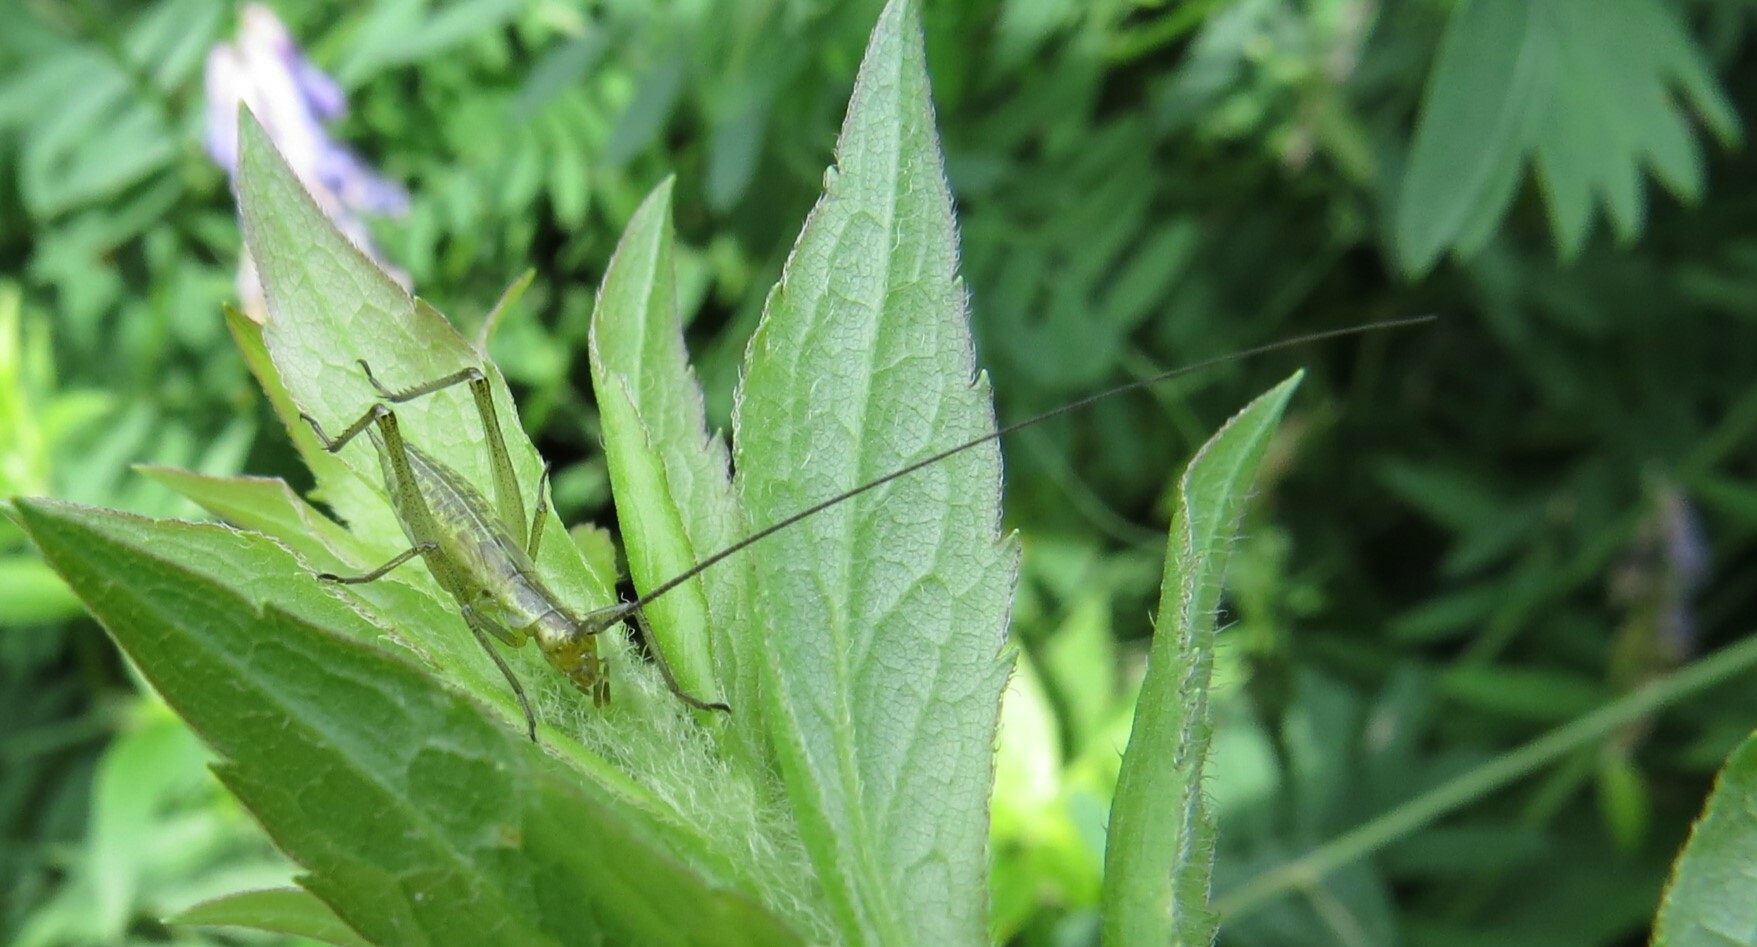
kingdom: Animalia
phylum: Arthropoda
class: Insecta
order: Orthoptera
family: Gryllidae
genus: Oecanthus
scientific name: Oecanthus nigricornis
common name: Black-horned tree cricket
